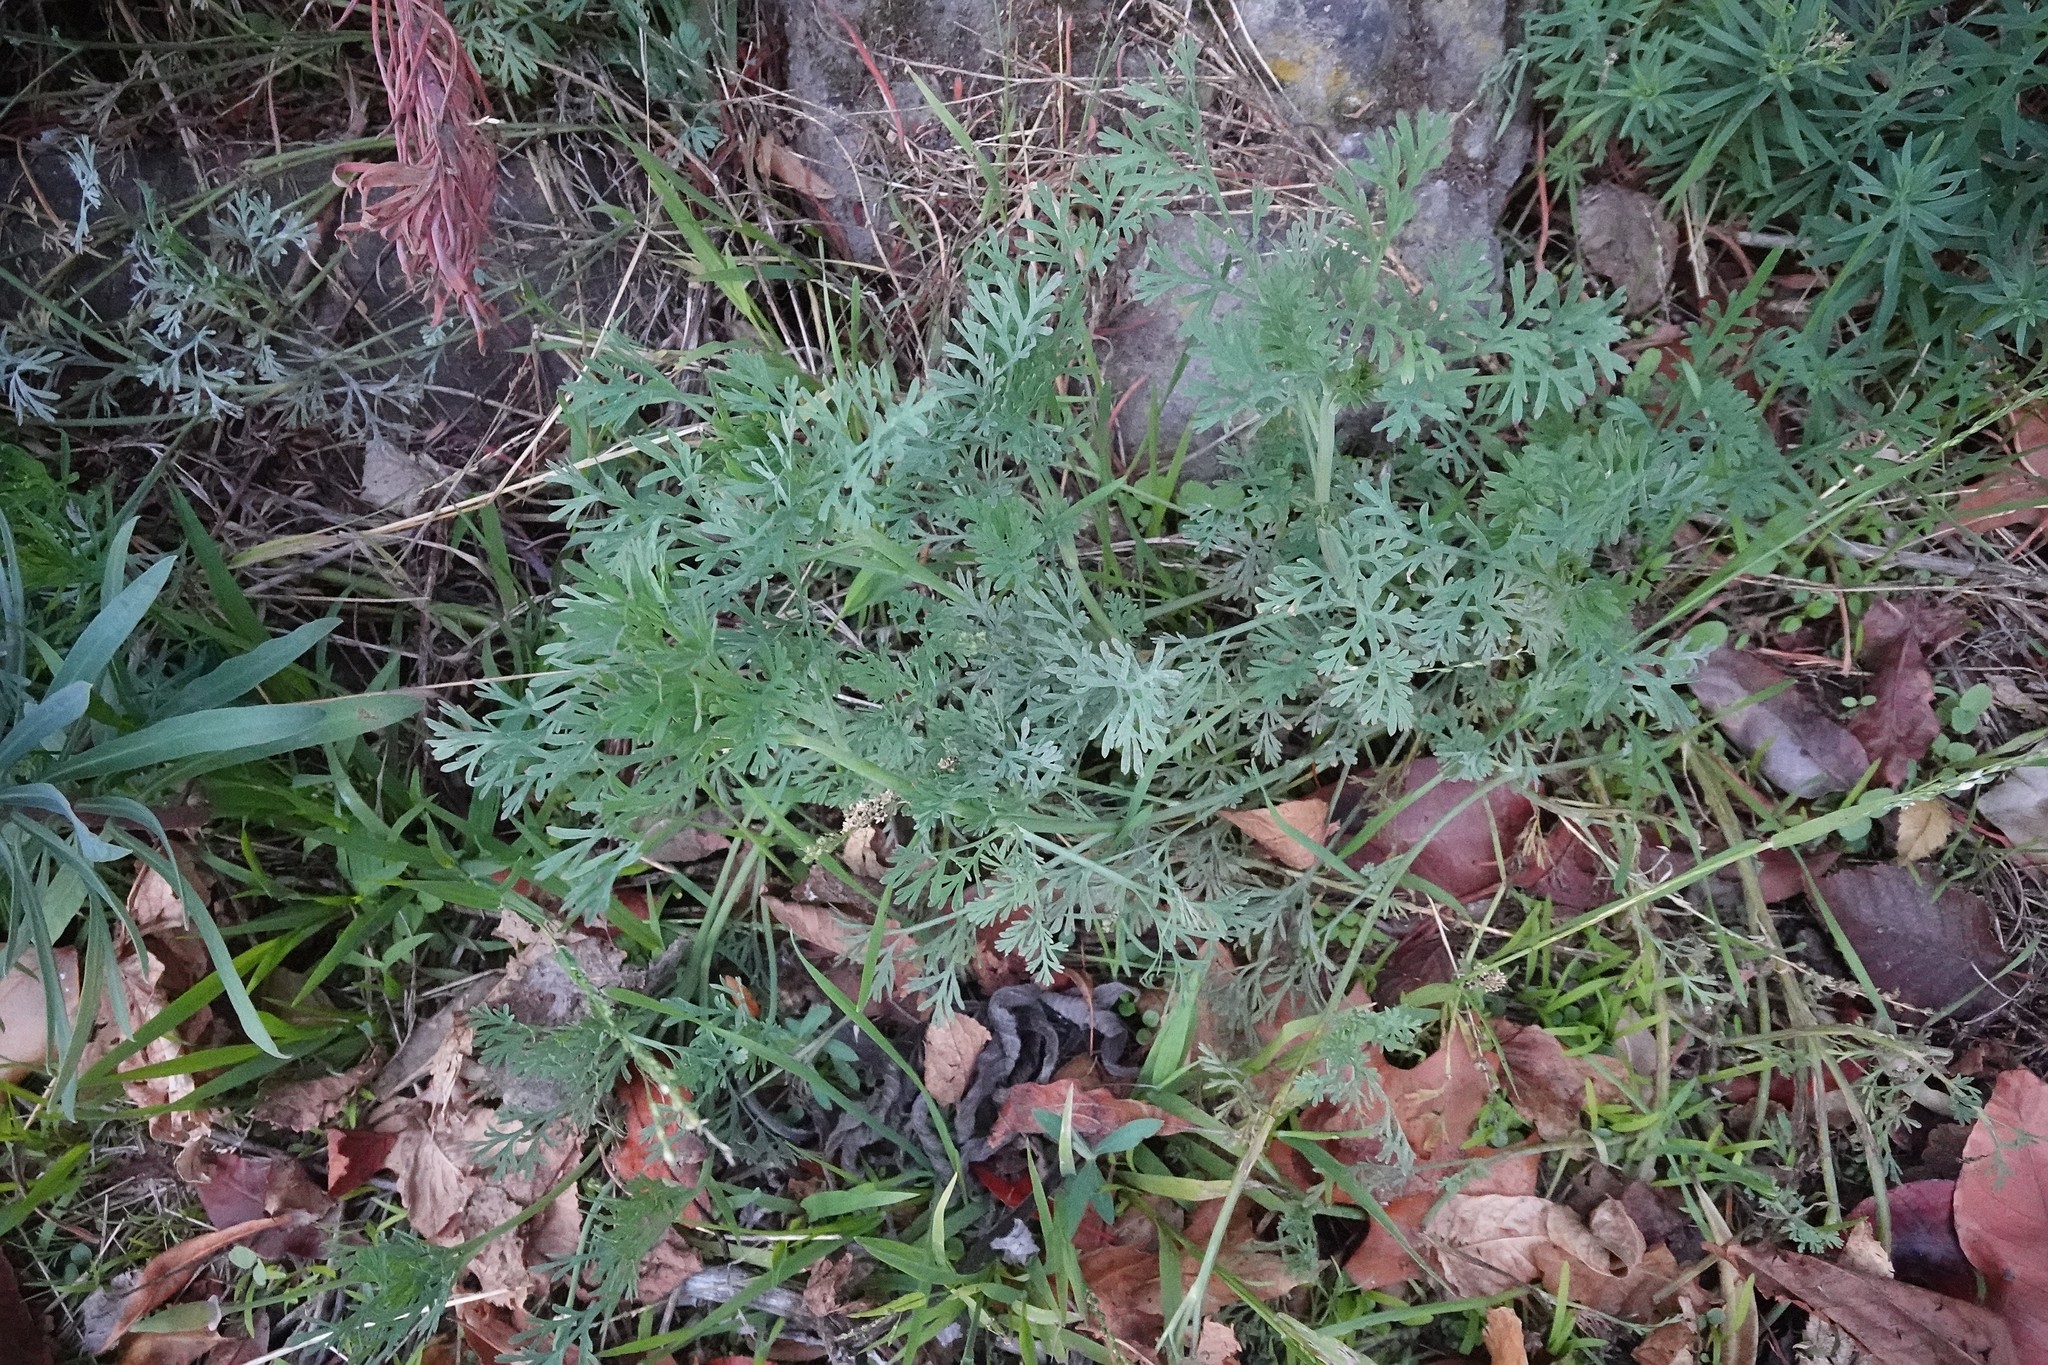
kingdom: Plantae
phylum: Tracheophyta
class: Magnoliopsida
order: Ranunculales
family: Papaveraceae
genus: Eschscholzia
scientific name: Eschscholzia californica
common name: California poppy
